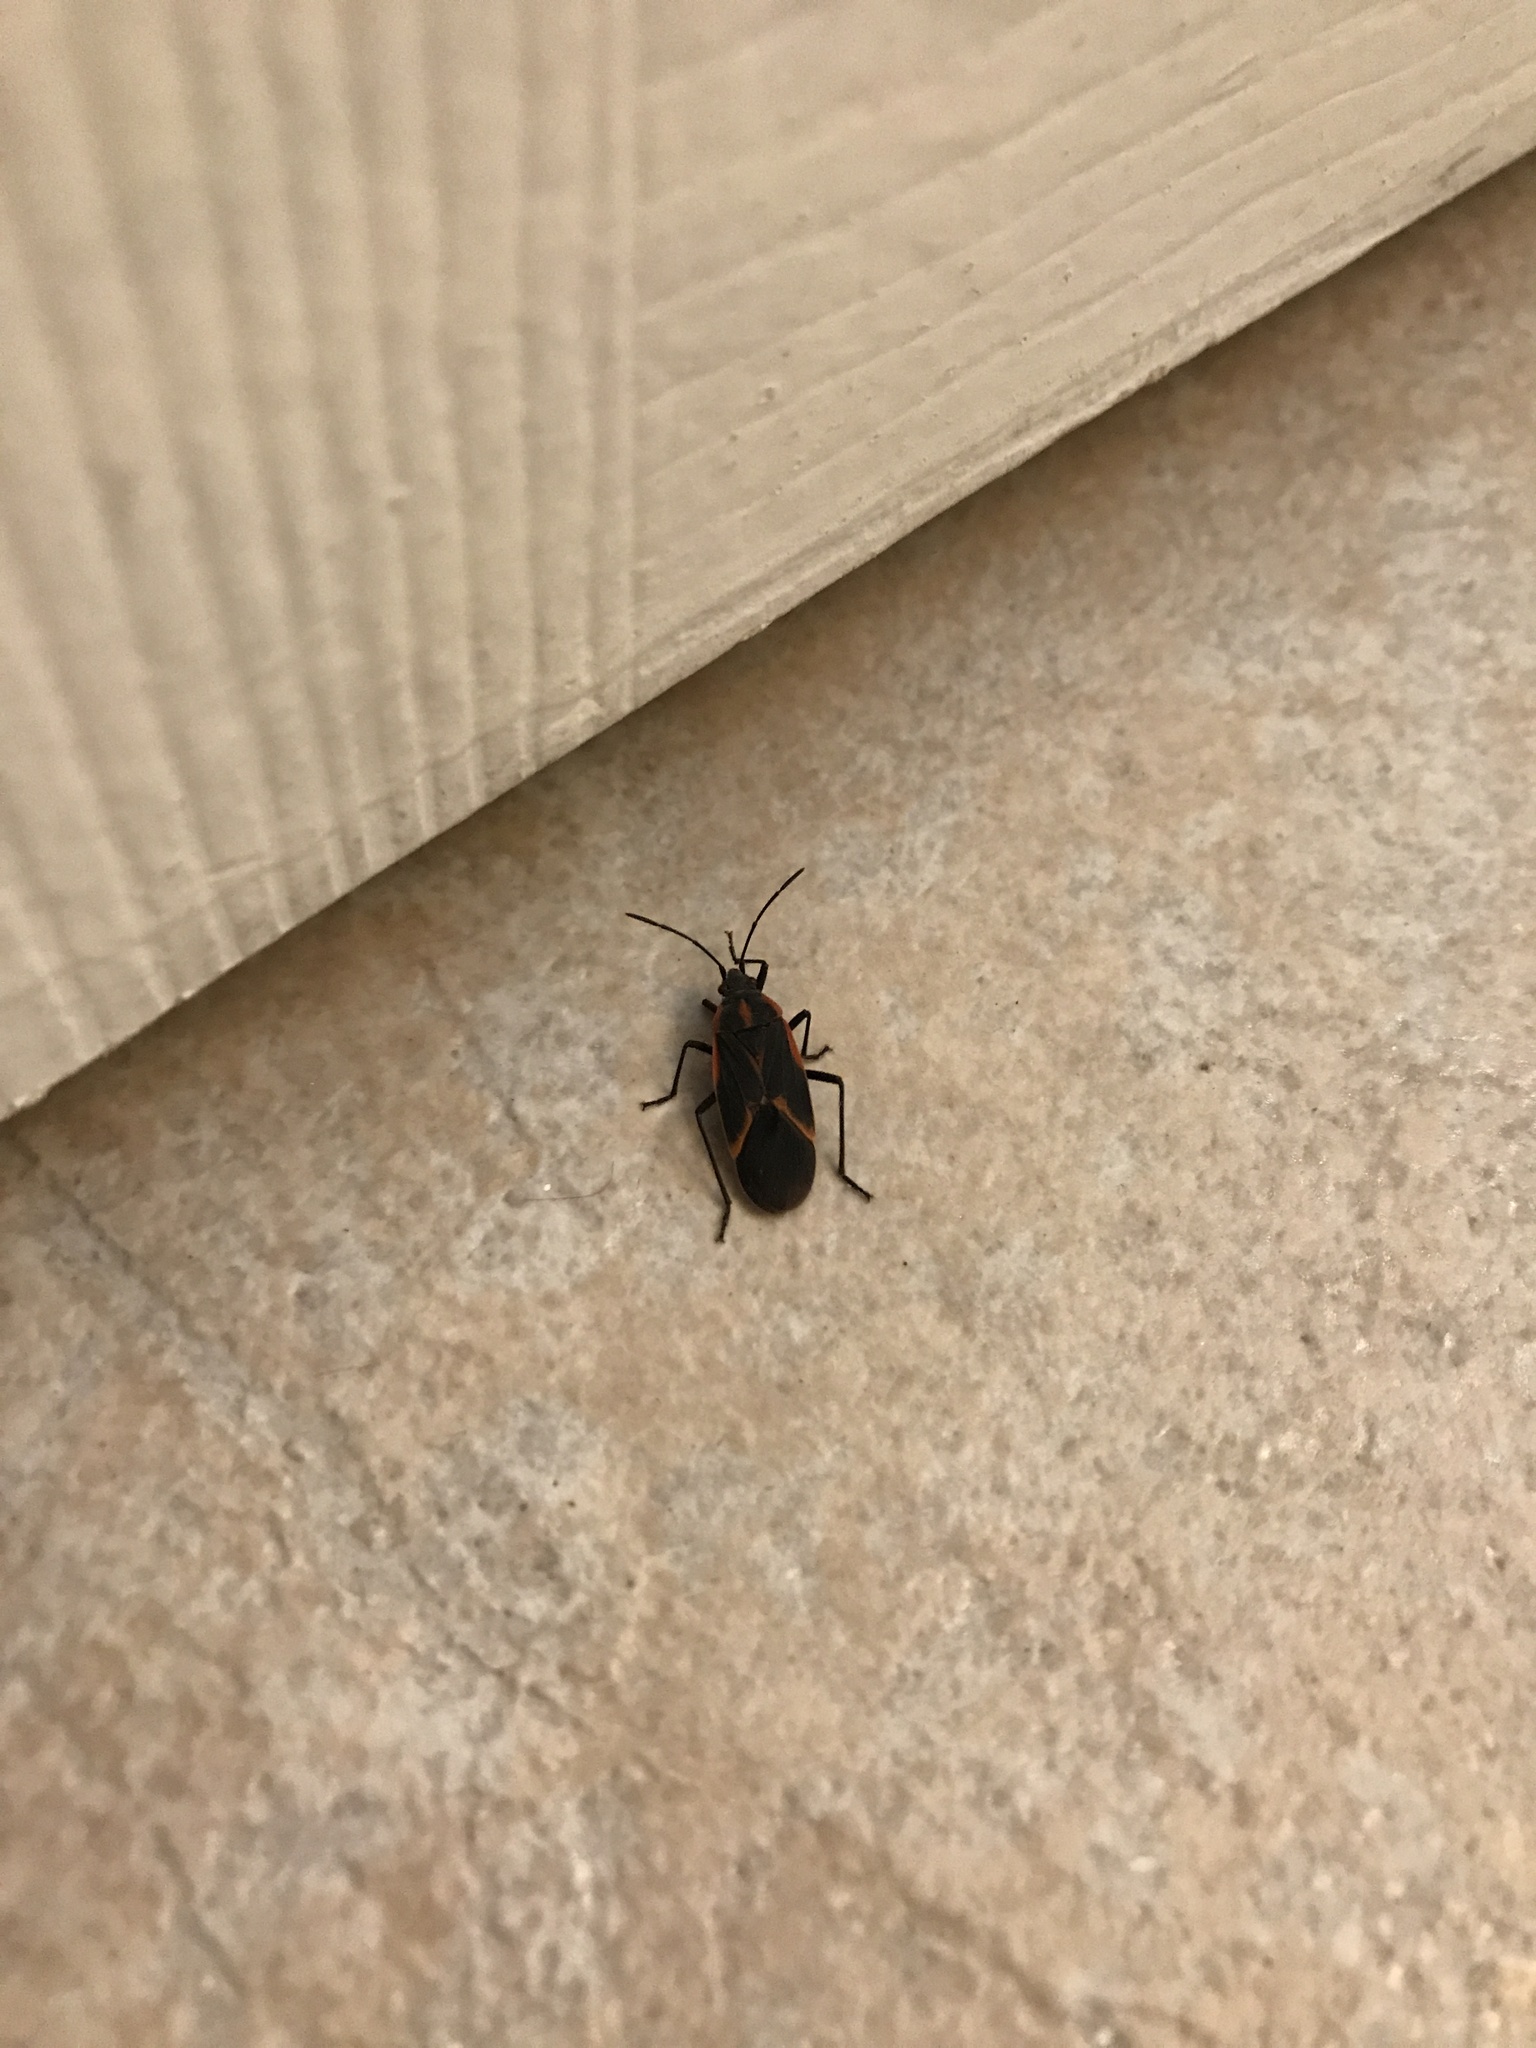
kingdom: Animalia
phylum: Arthropoda
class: Insecta
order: Hemiptera
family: Rhopalidae
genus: Boisea
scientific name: Boisea trivittata
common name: Boxelder bug
